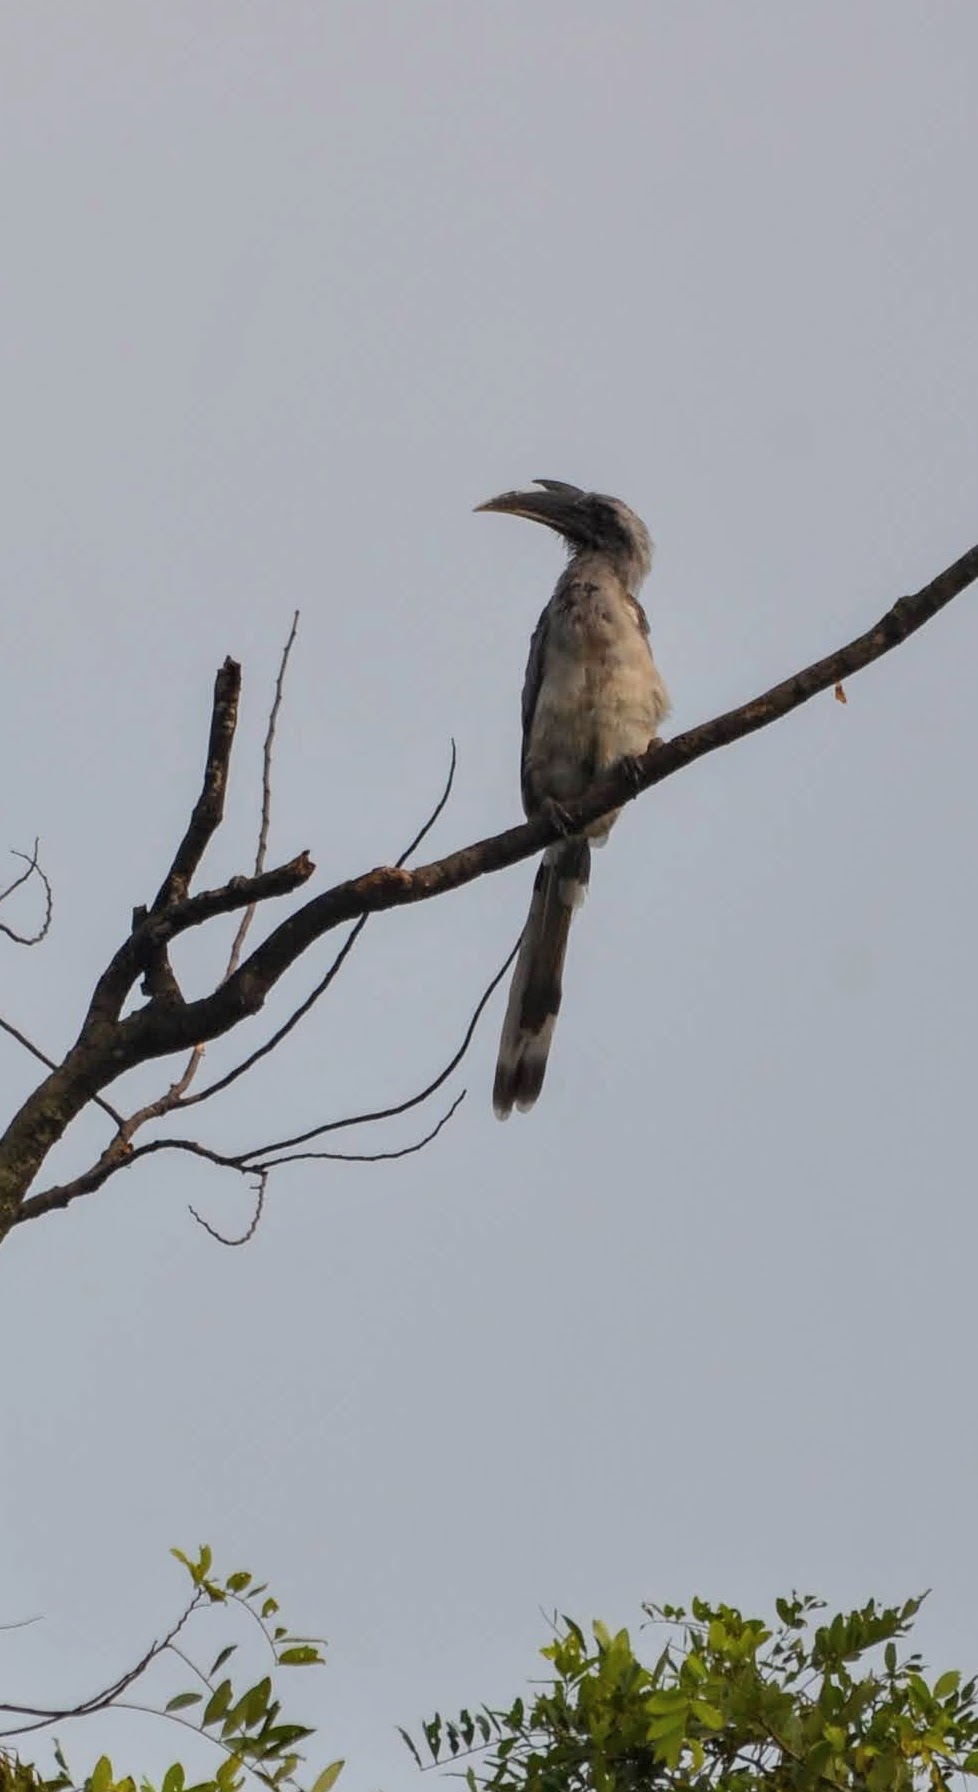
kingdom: Animalia
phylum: Chordata
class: Aves
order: Bucerotiformes
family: Bucerotidae
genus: Ocyceros
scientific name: Ocyceros birostris
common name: Indian grey hornbill
